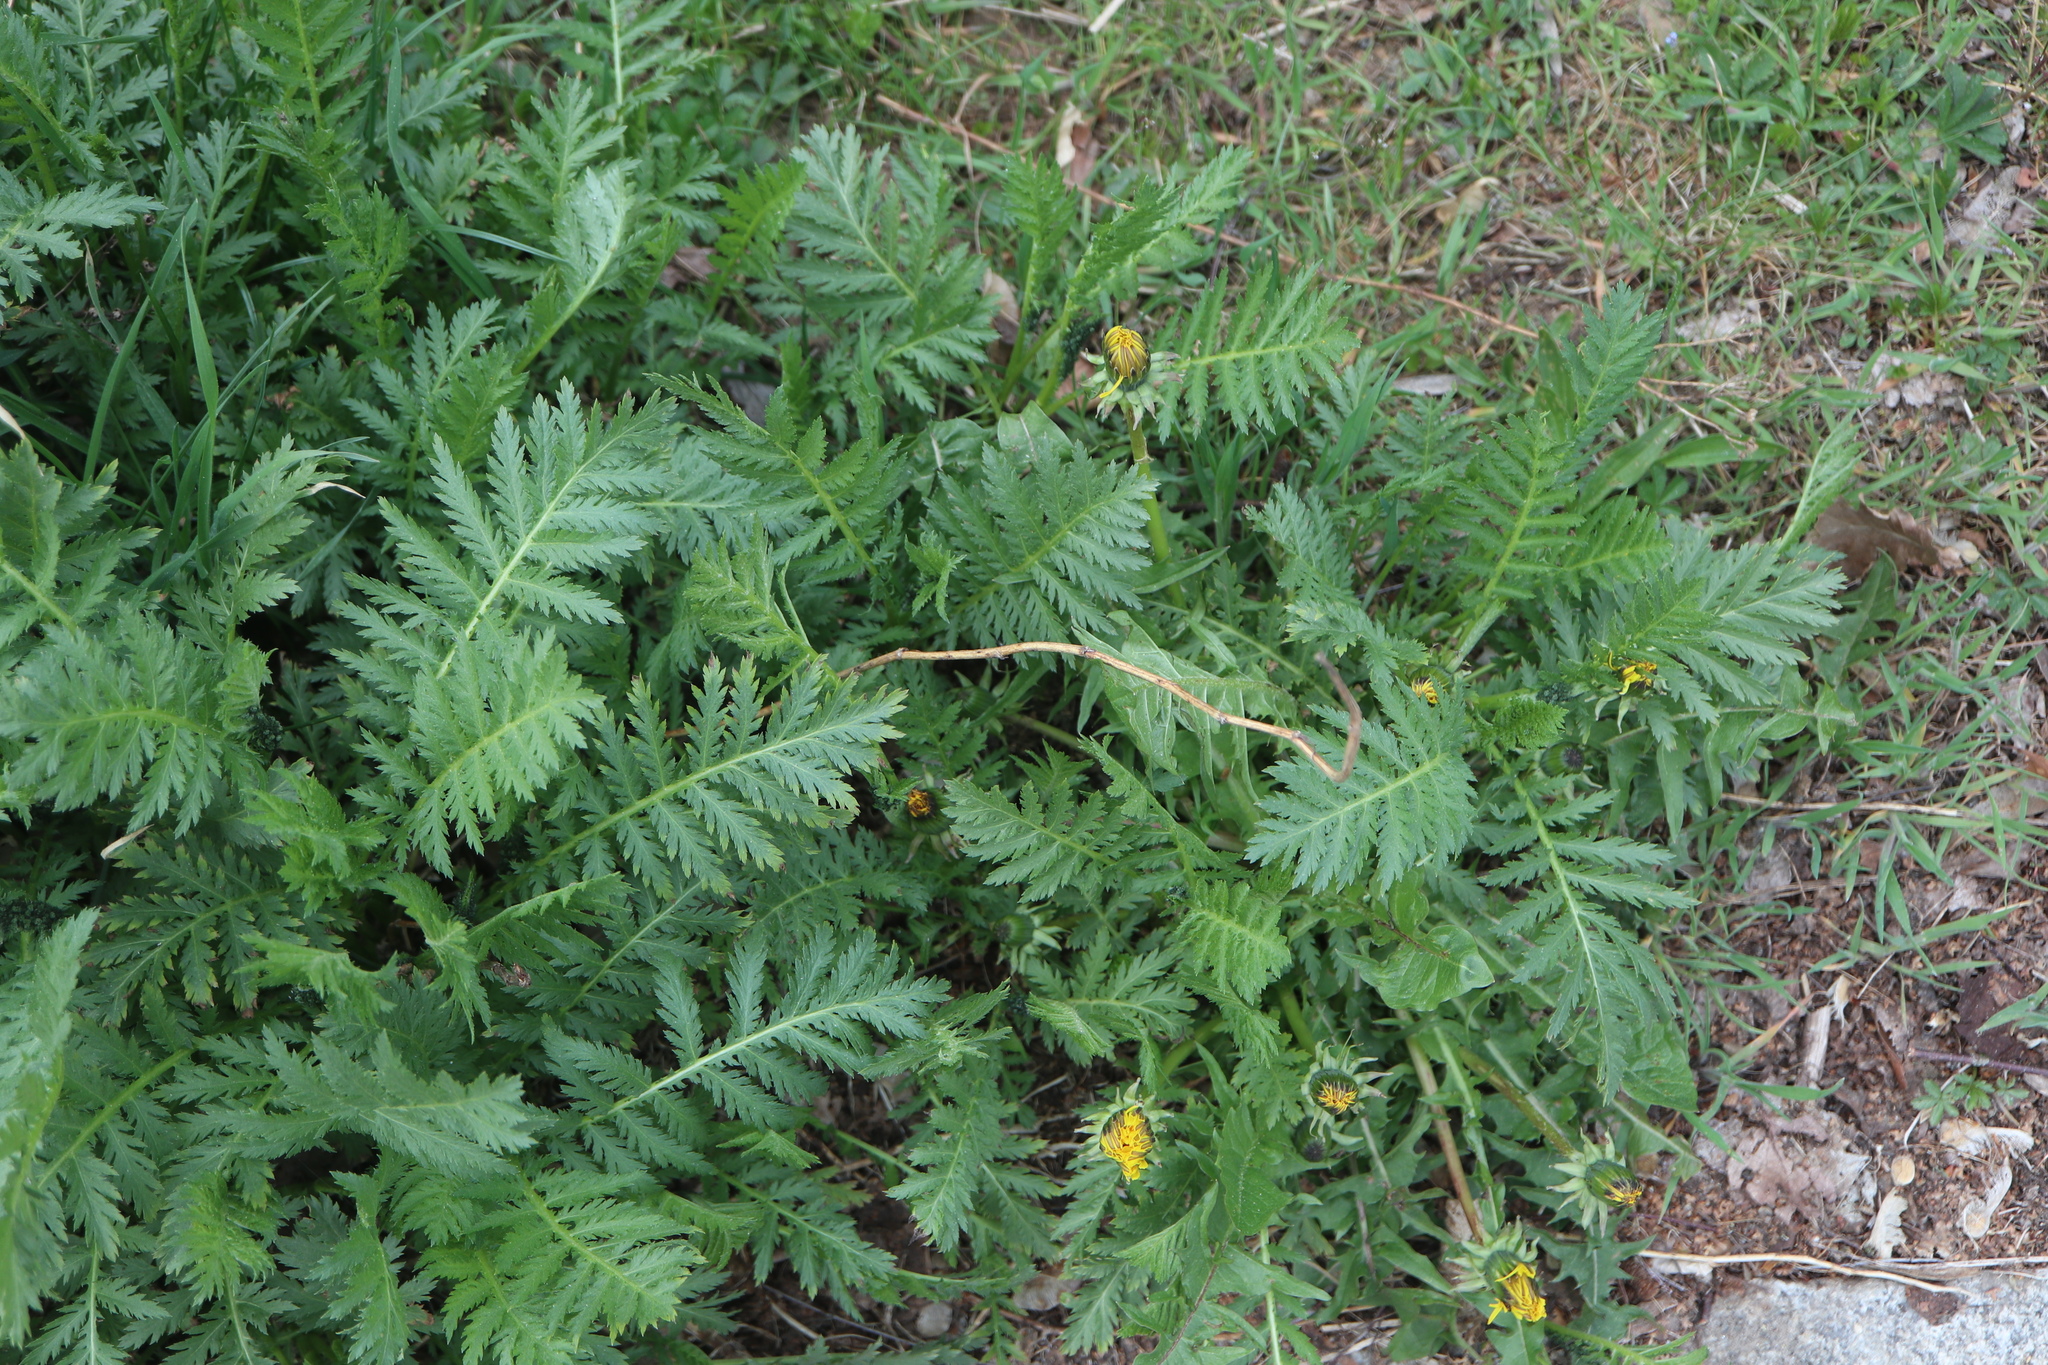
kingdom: Plantae
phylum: Tracheophyta
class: Magnoliopsida
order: Asterales
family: Asteraceae
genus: Tanacetum
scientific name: Tanacetum vulgare
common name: Common tansy
